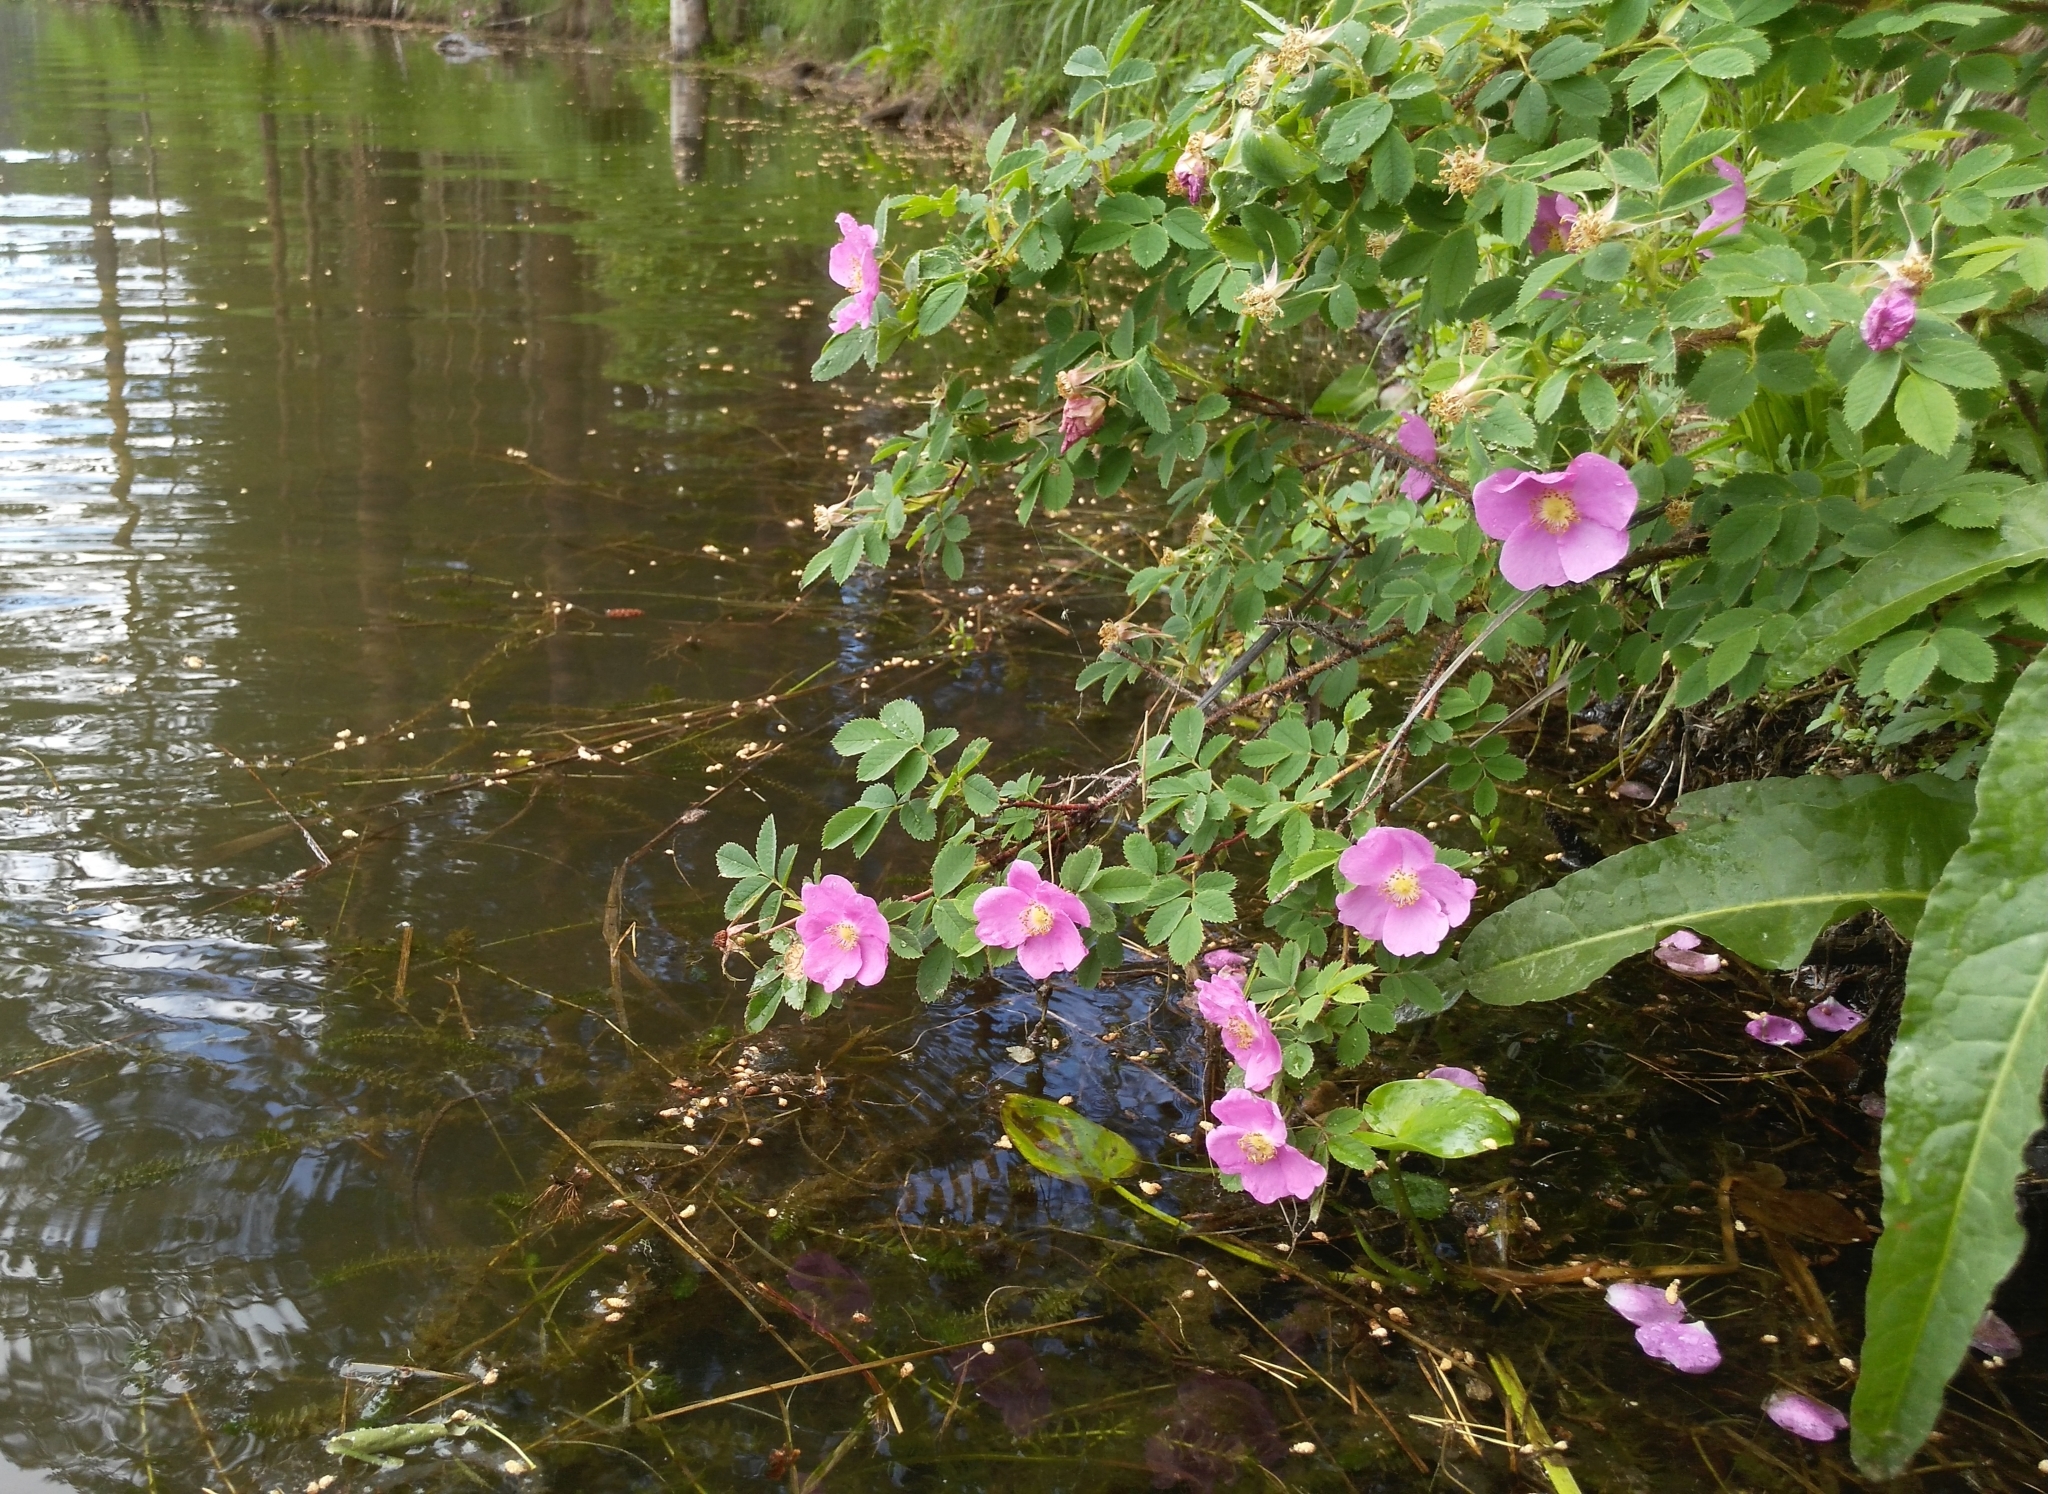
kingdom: Plantae
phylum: Tracheophyta
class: Magnoliopsida
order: Rosales
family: Rosaceae
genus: Rosa
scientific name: Rosa acicularis
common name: Prickly rose
